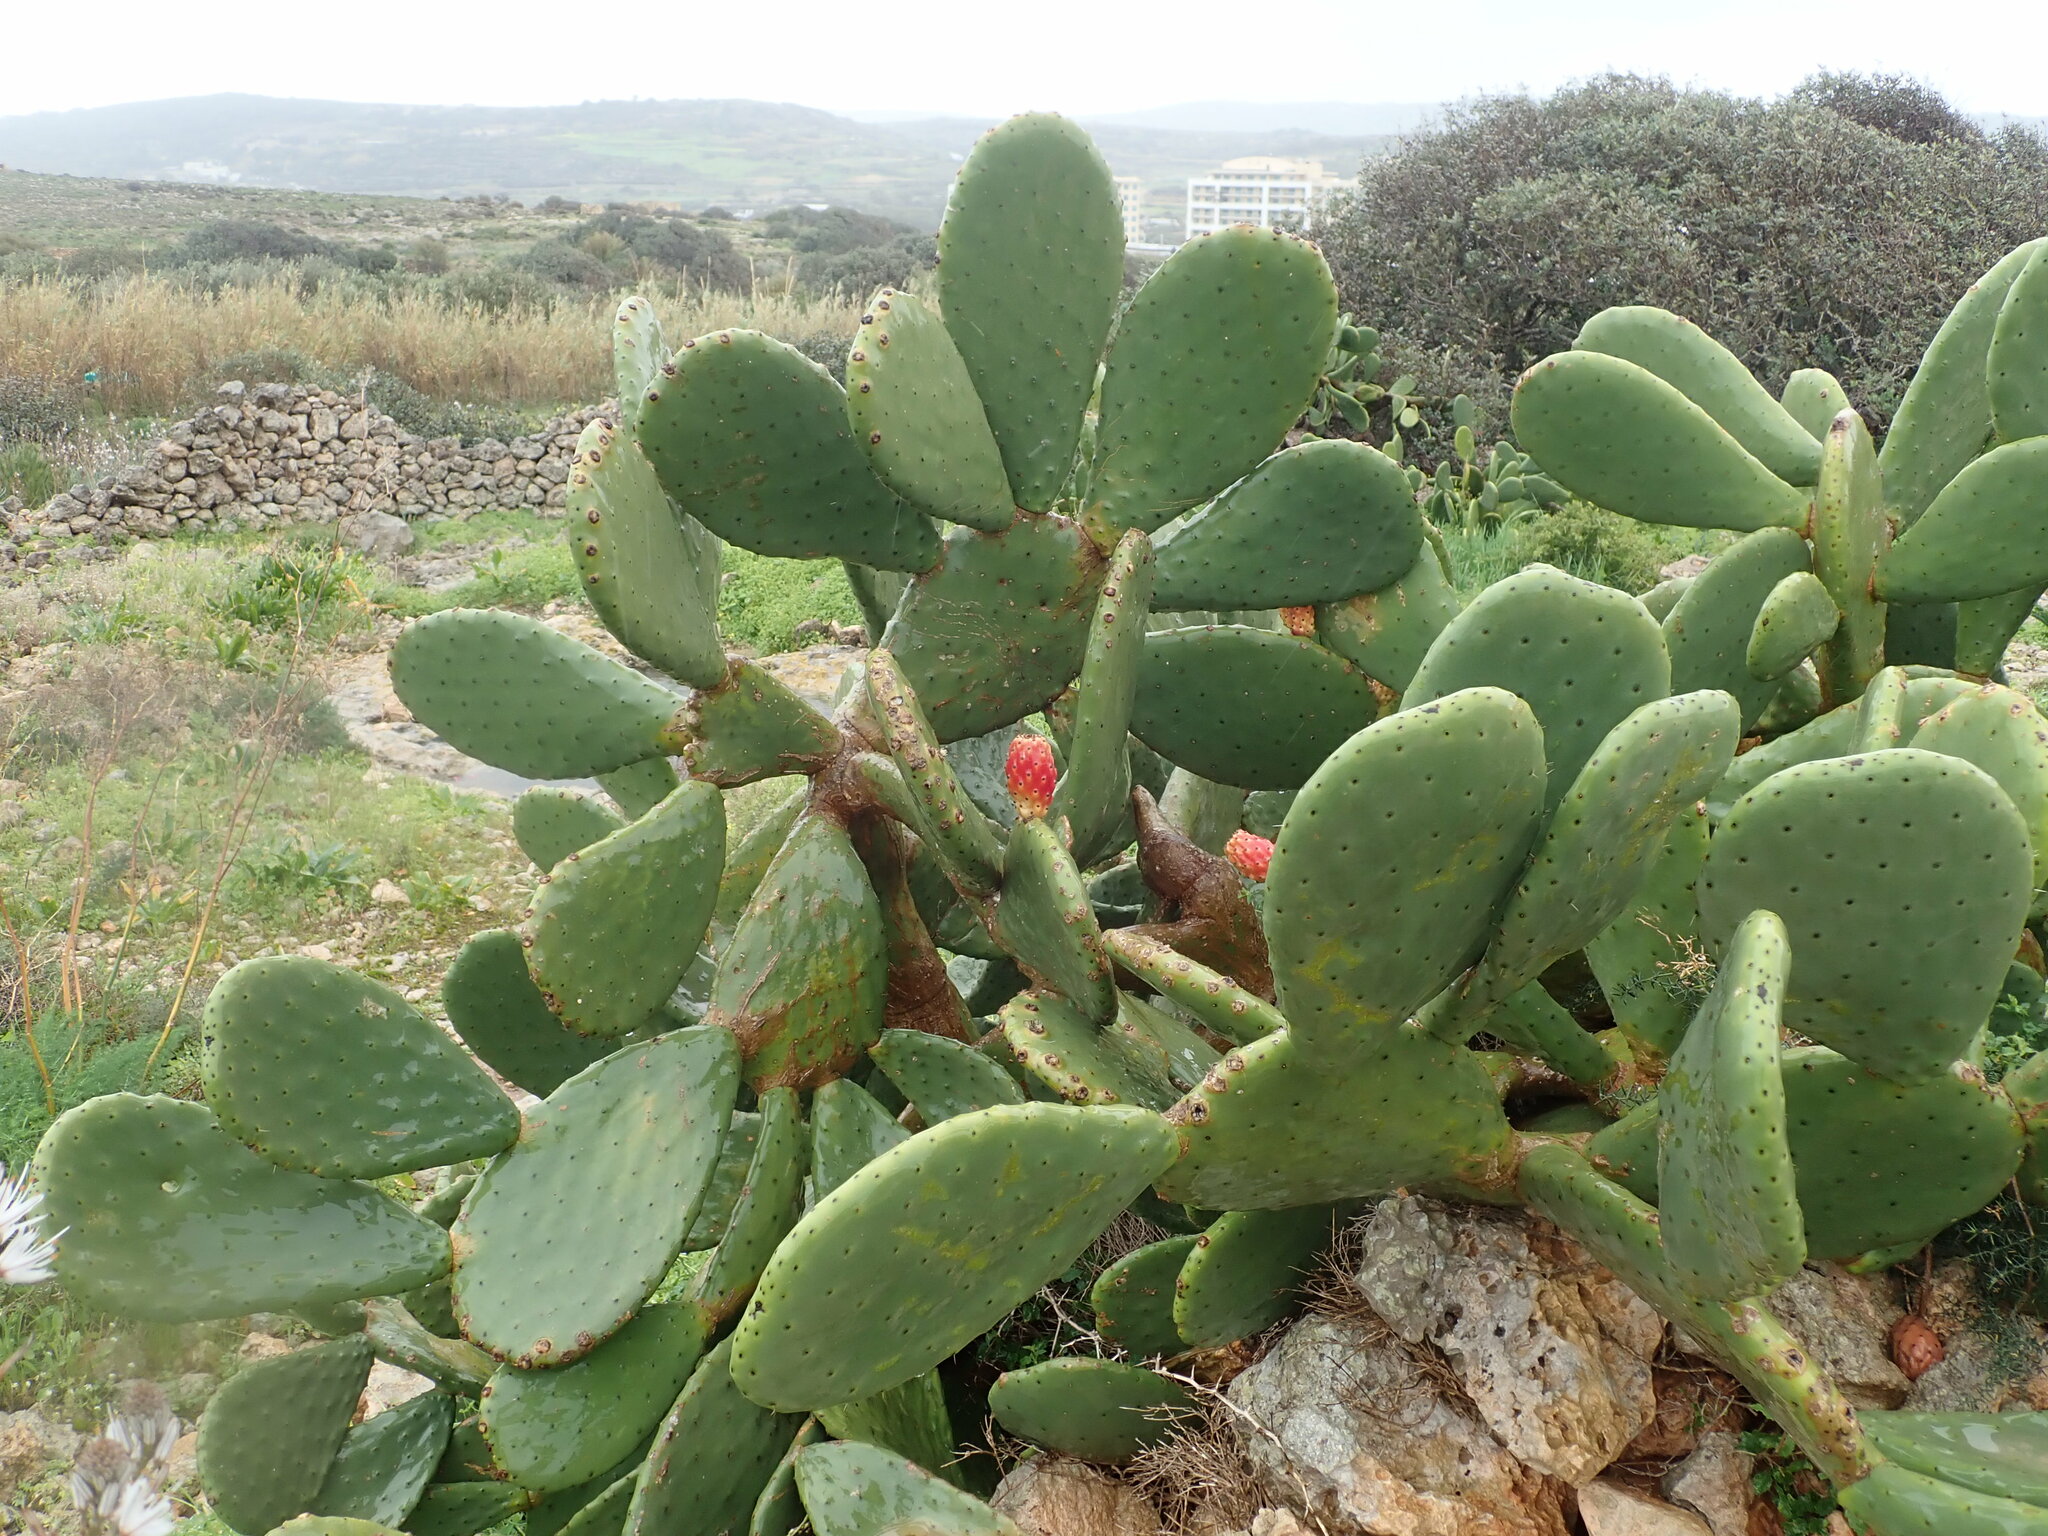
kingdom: Plantae
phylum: Tracheophyta
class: Magnoliopsida
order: Caryophyllales
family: Cactaceae
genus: Opuntia
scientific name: Opuntia ficus-indica
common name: Barbary fig
